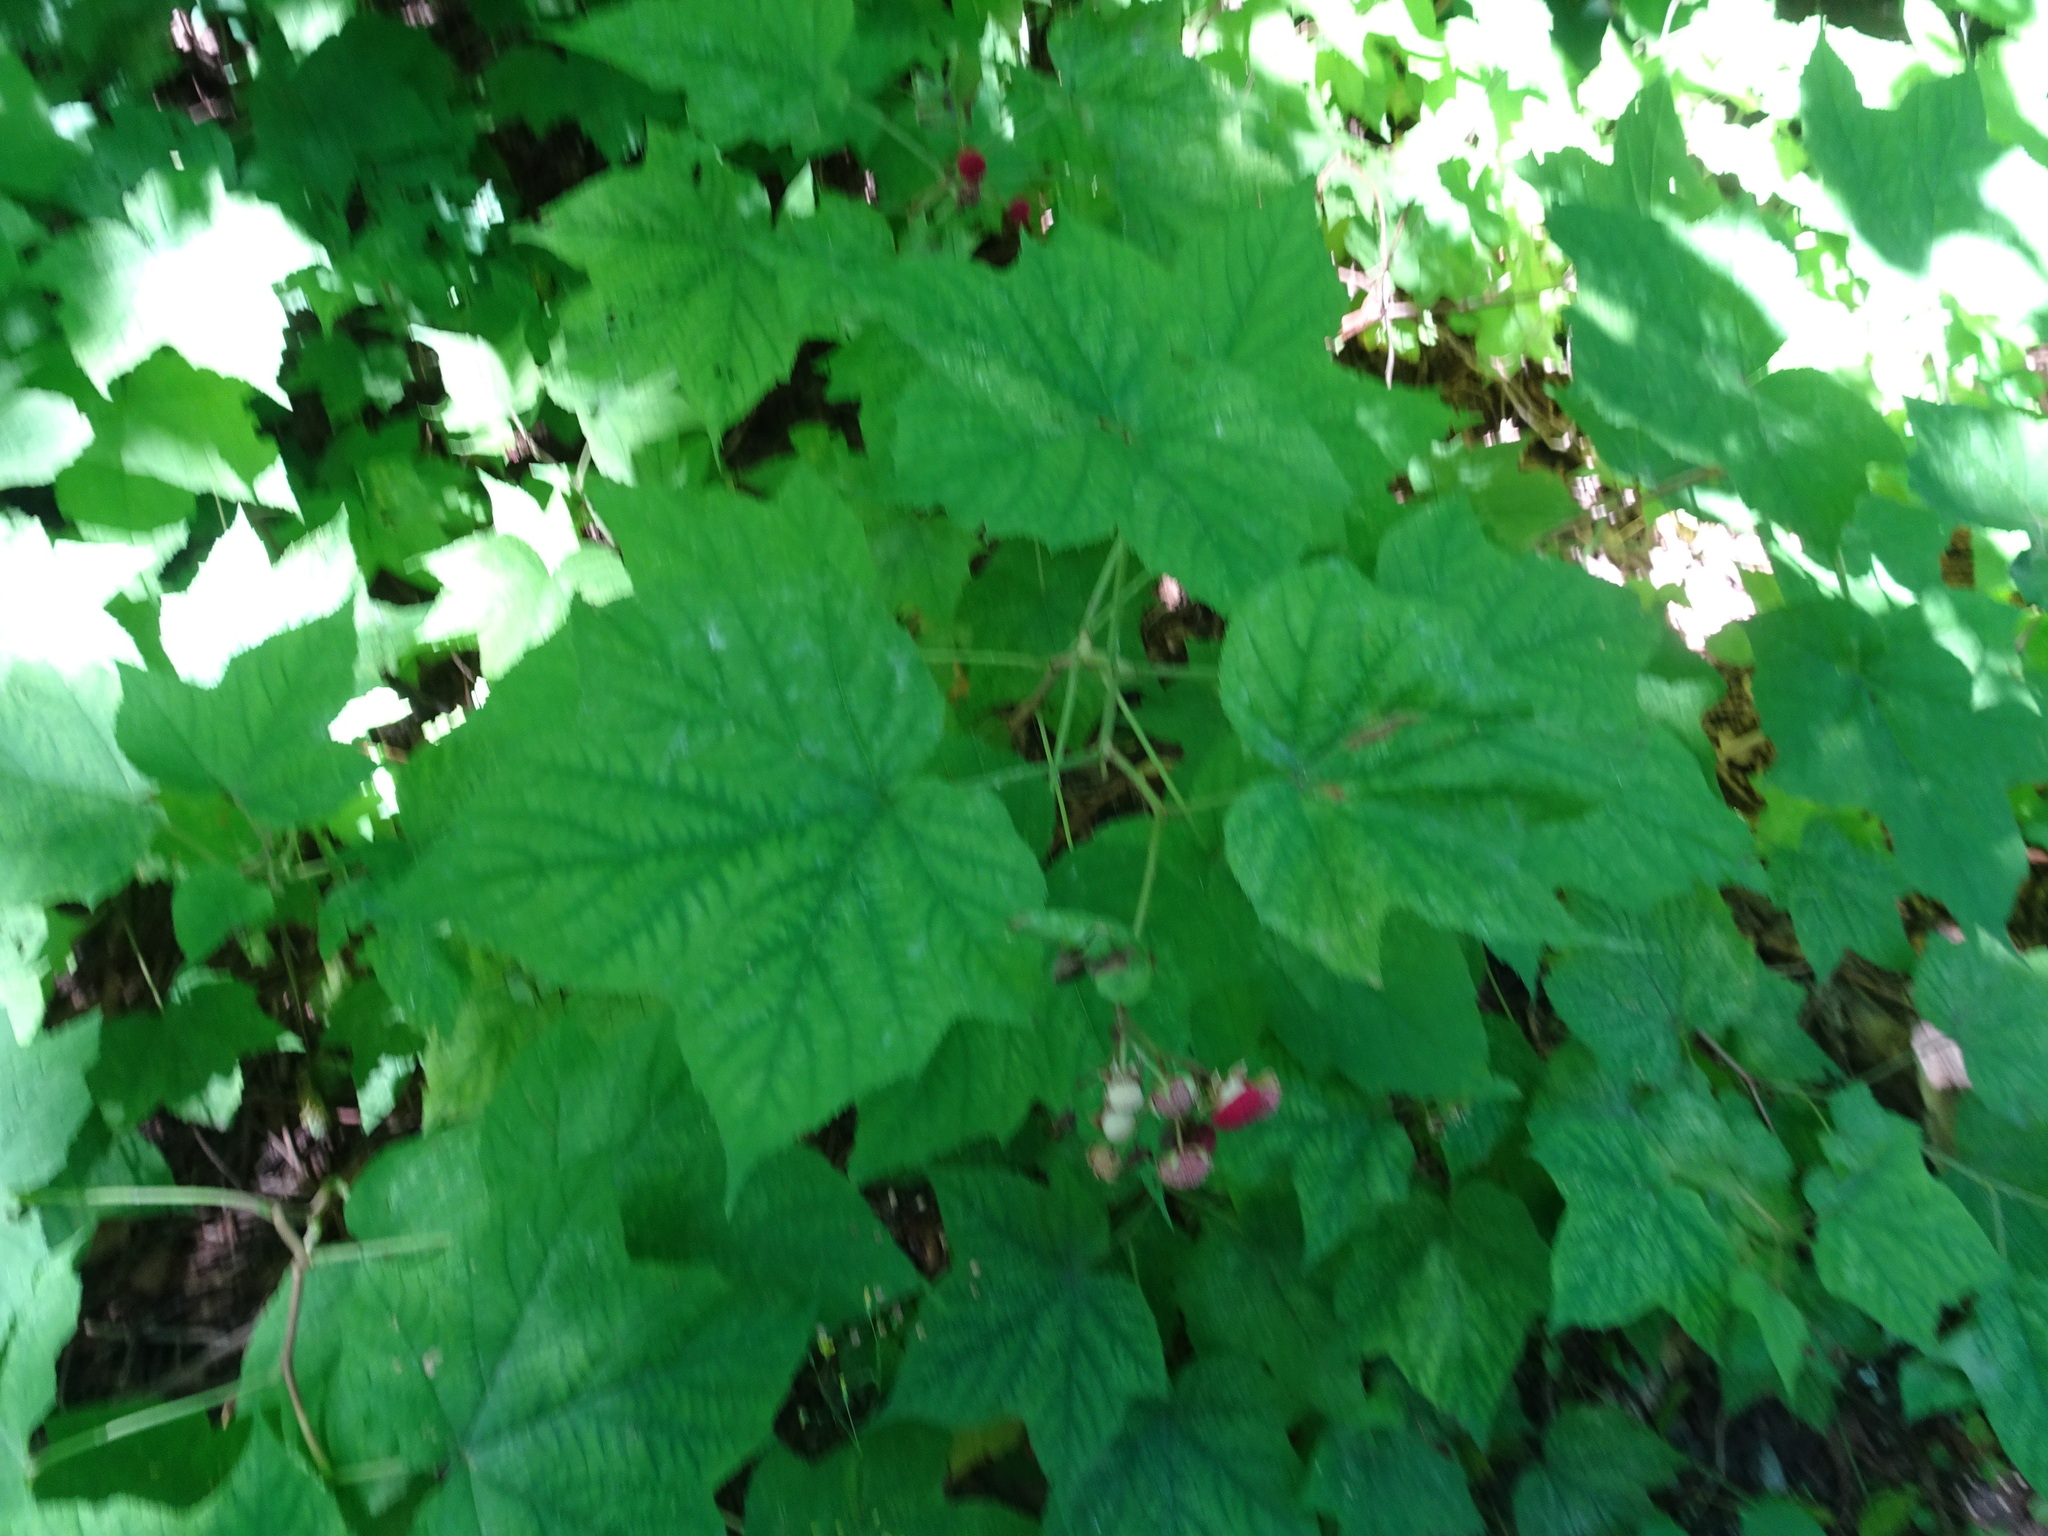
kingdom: Plantae
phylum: Tracheophyta
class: Magnoliopsida
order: Rosales
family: Rosaceae
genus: Rubus
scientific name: Rubus odoratus
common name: Purple-flowered raspberry
